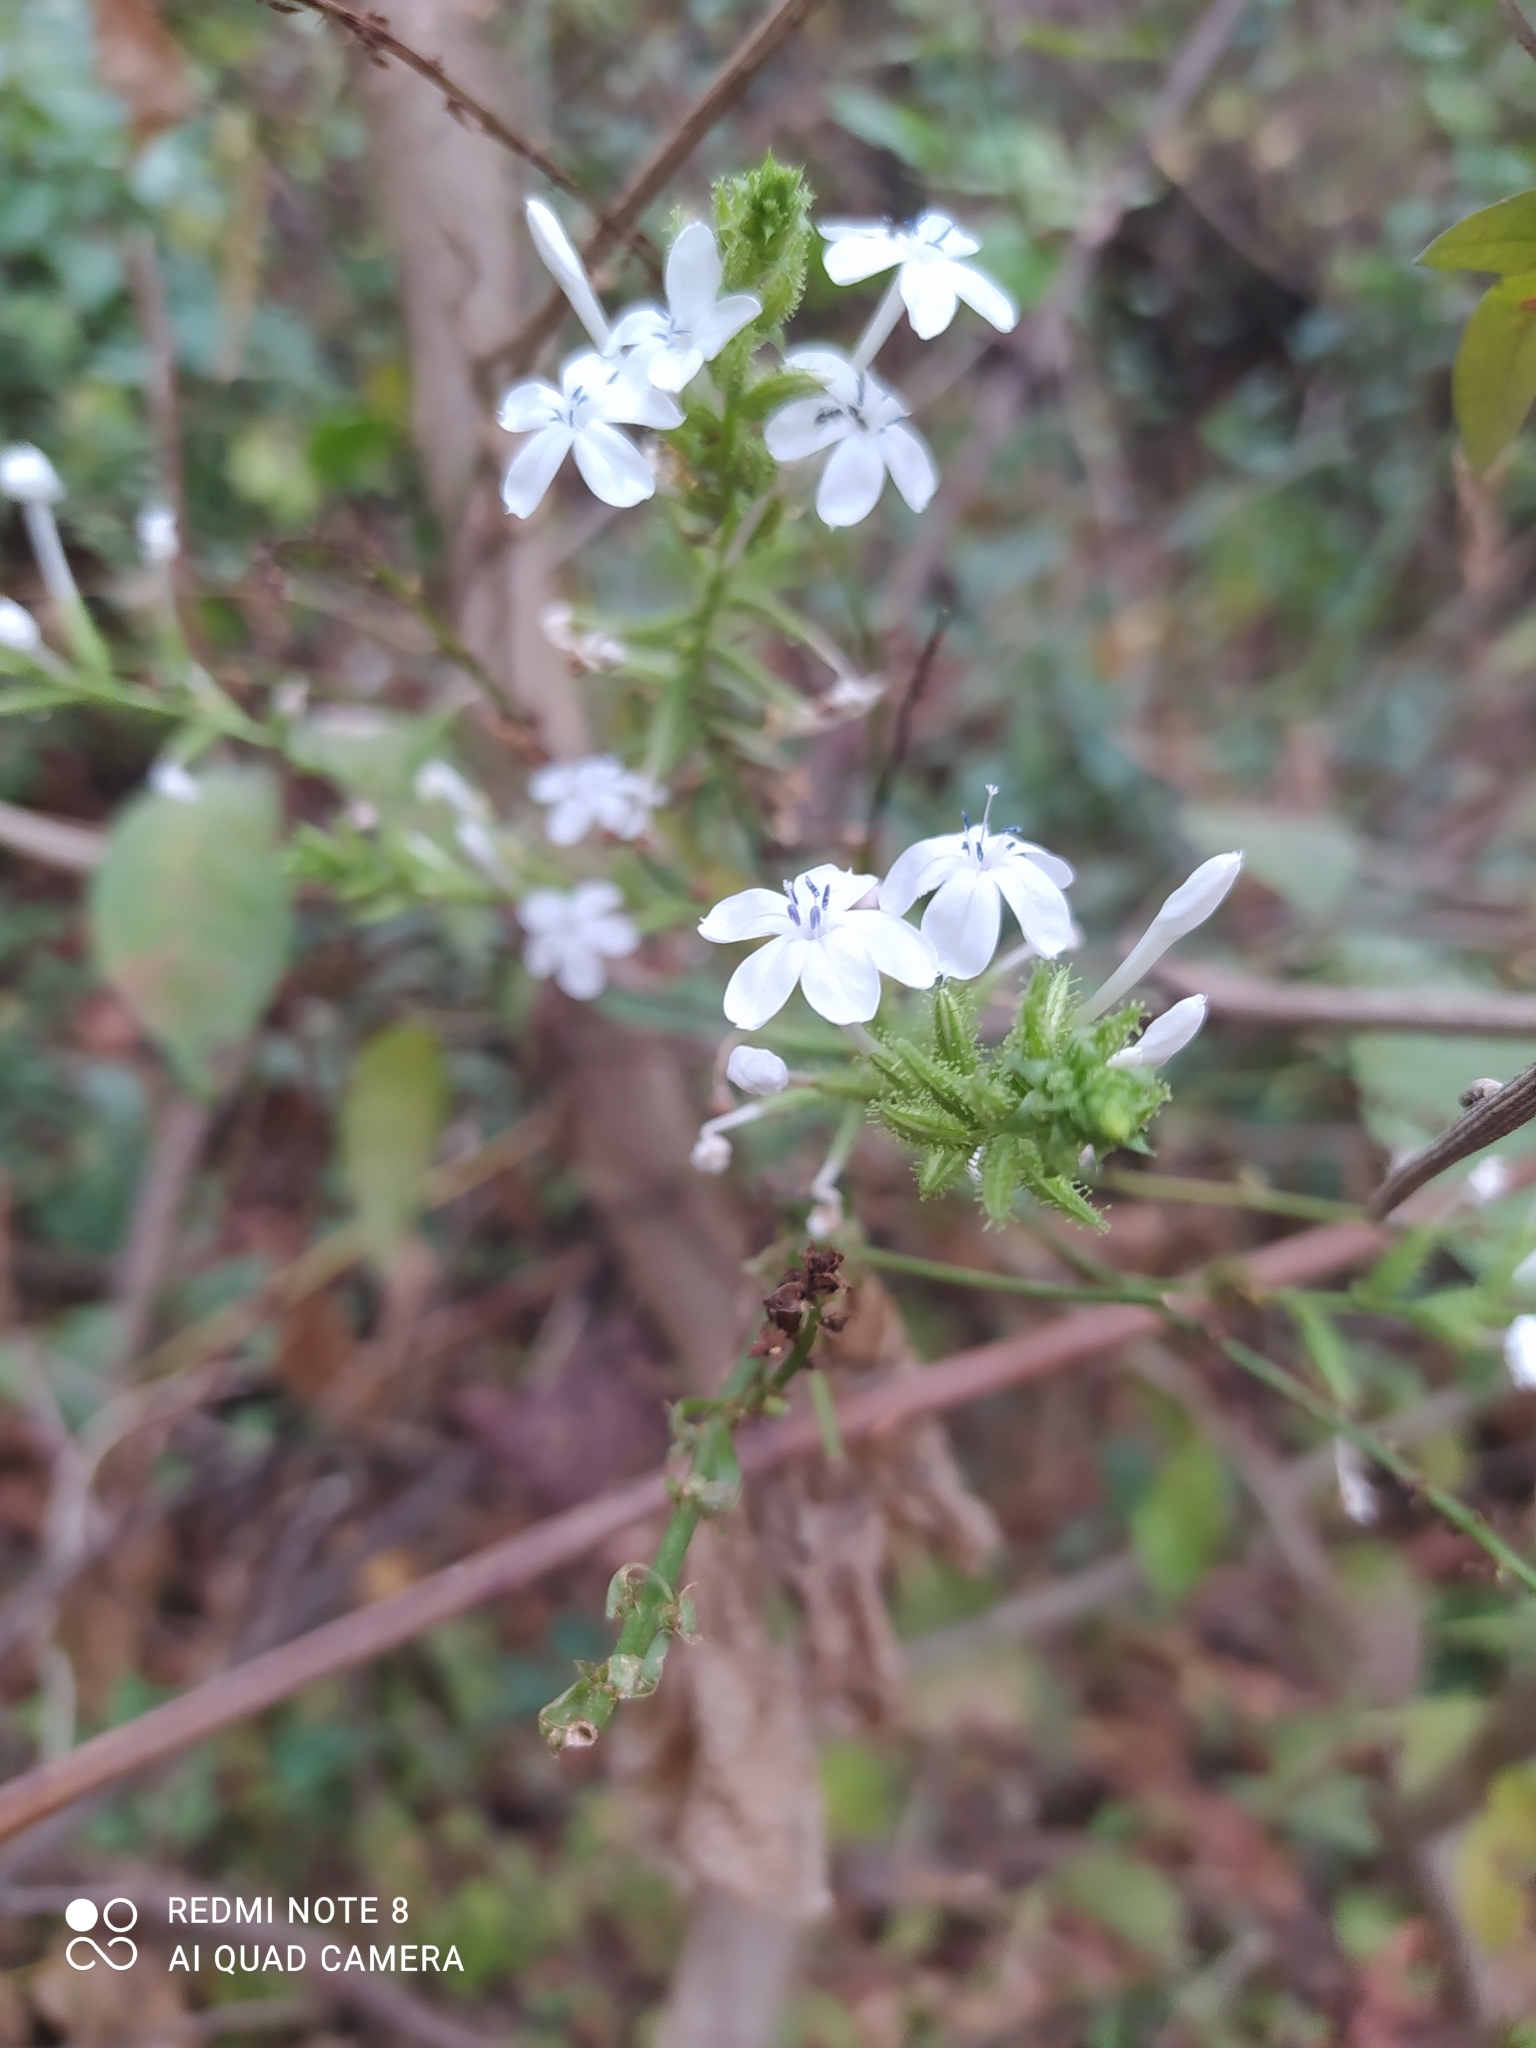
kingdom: Plantae
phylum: Tracheophyta
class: Magnoliopsida
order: Caryophyllales
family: Plumbaginaceae
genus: Plumbago
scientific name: Plumbago zeylanica
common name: Doctorbush
